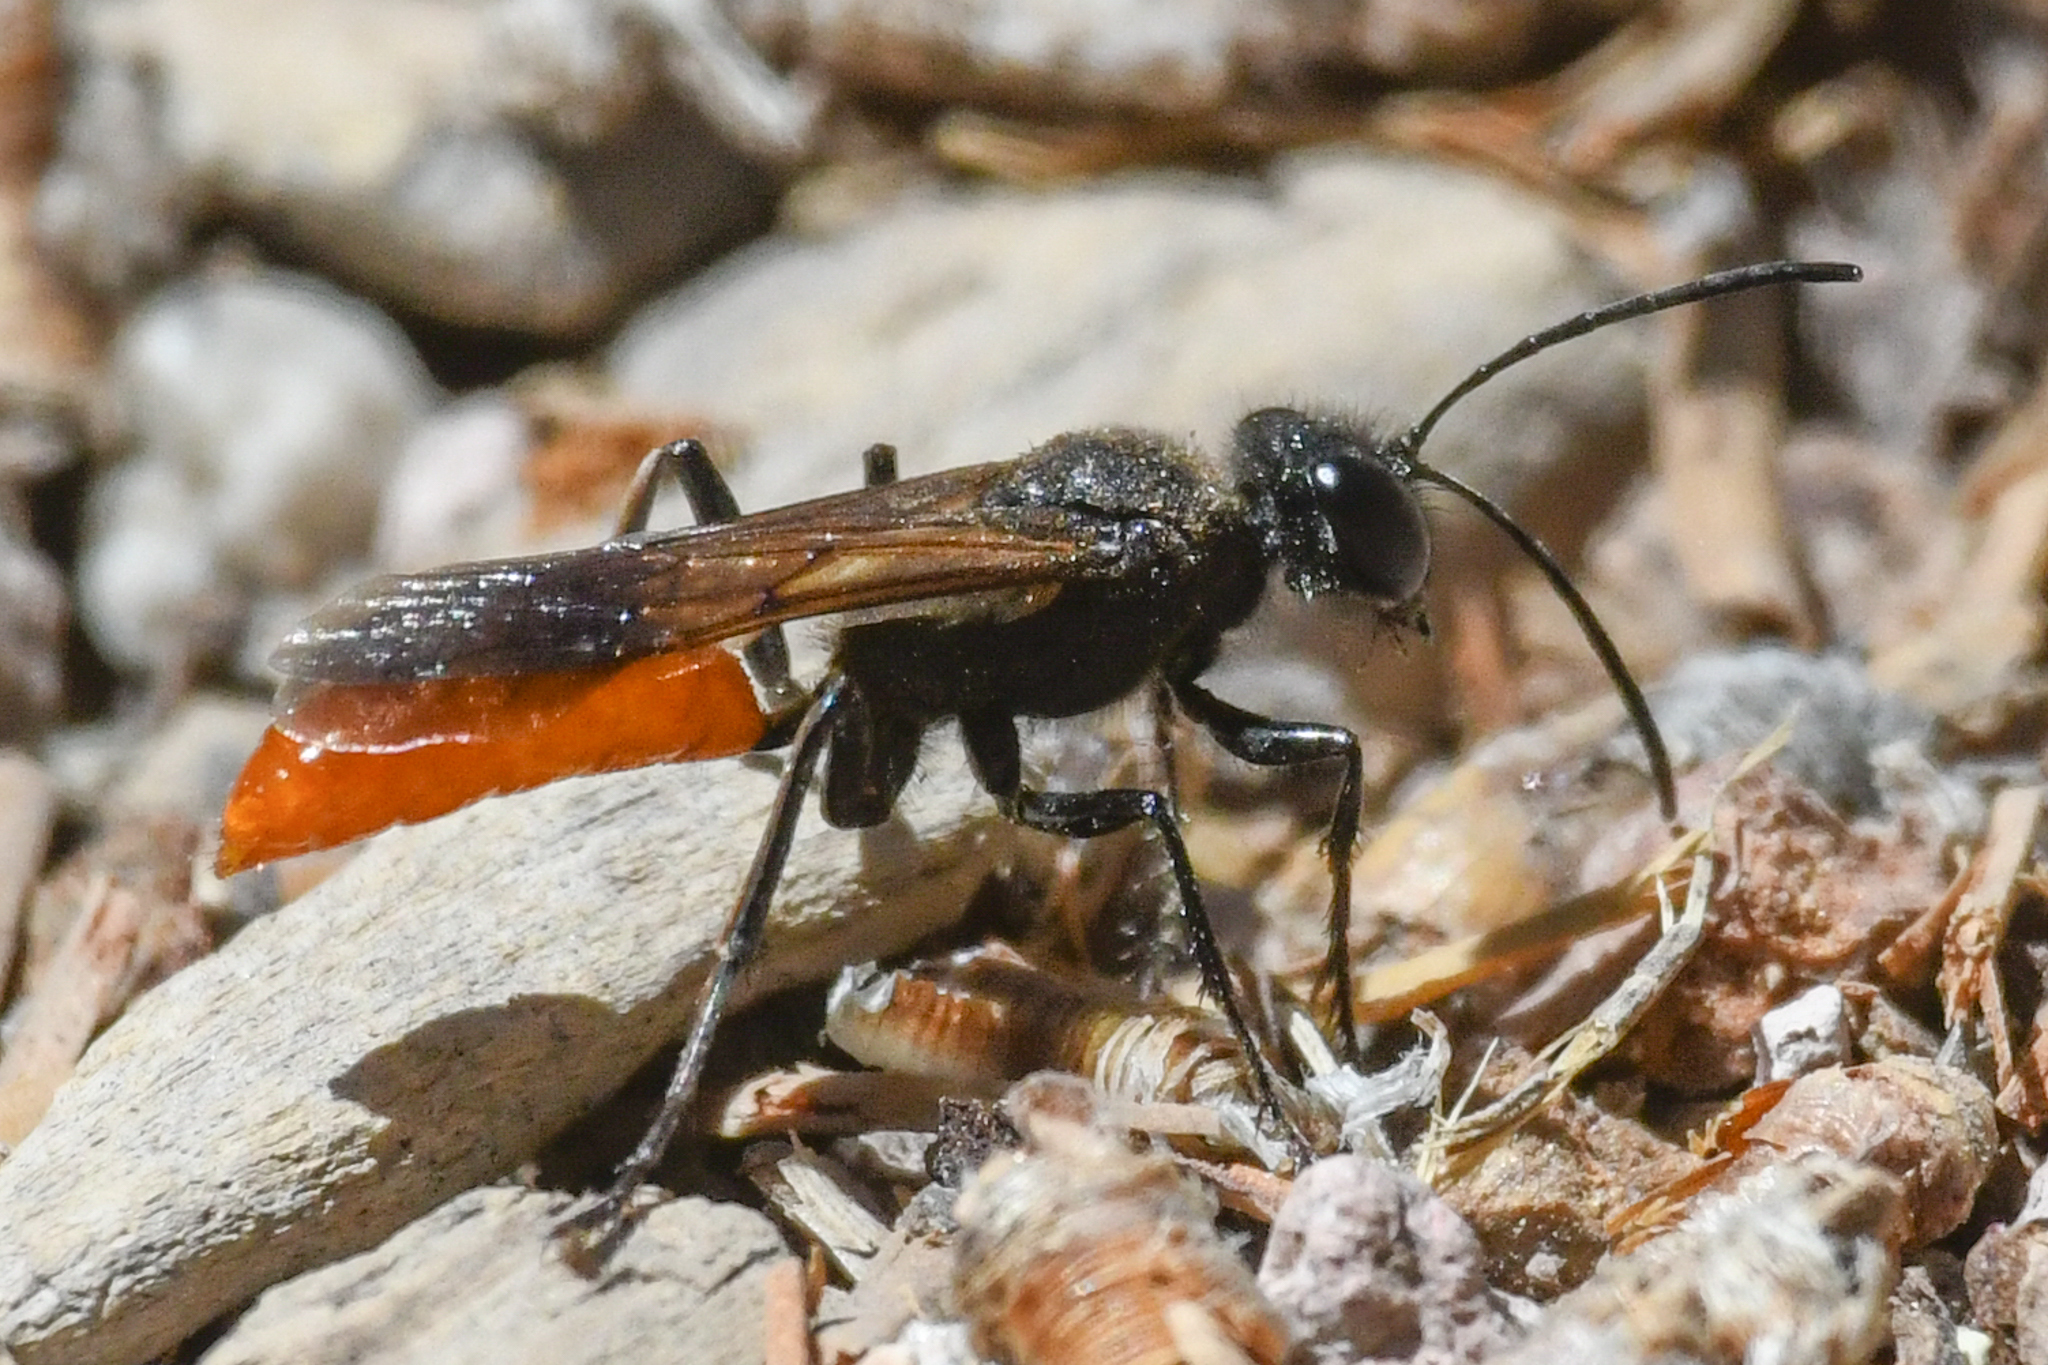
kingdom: Animalia
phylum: Arthropoda
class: Insecta
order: Hymenoptera
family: Sphecidae
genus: Sphex
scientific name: Sphex lucae
